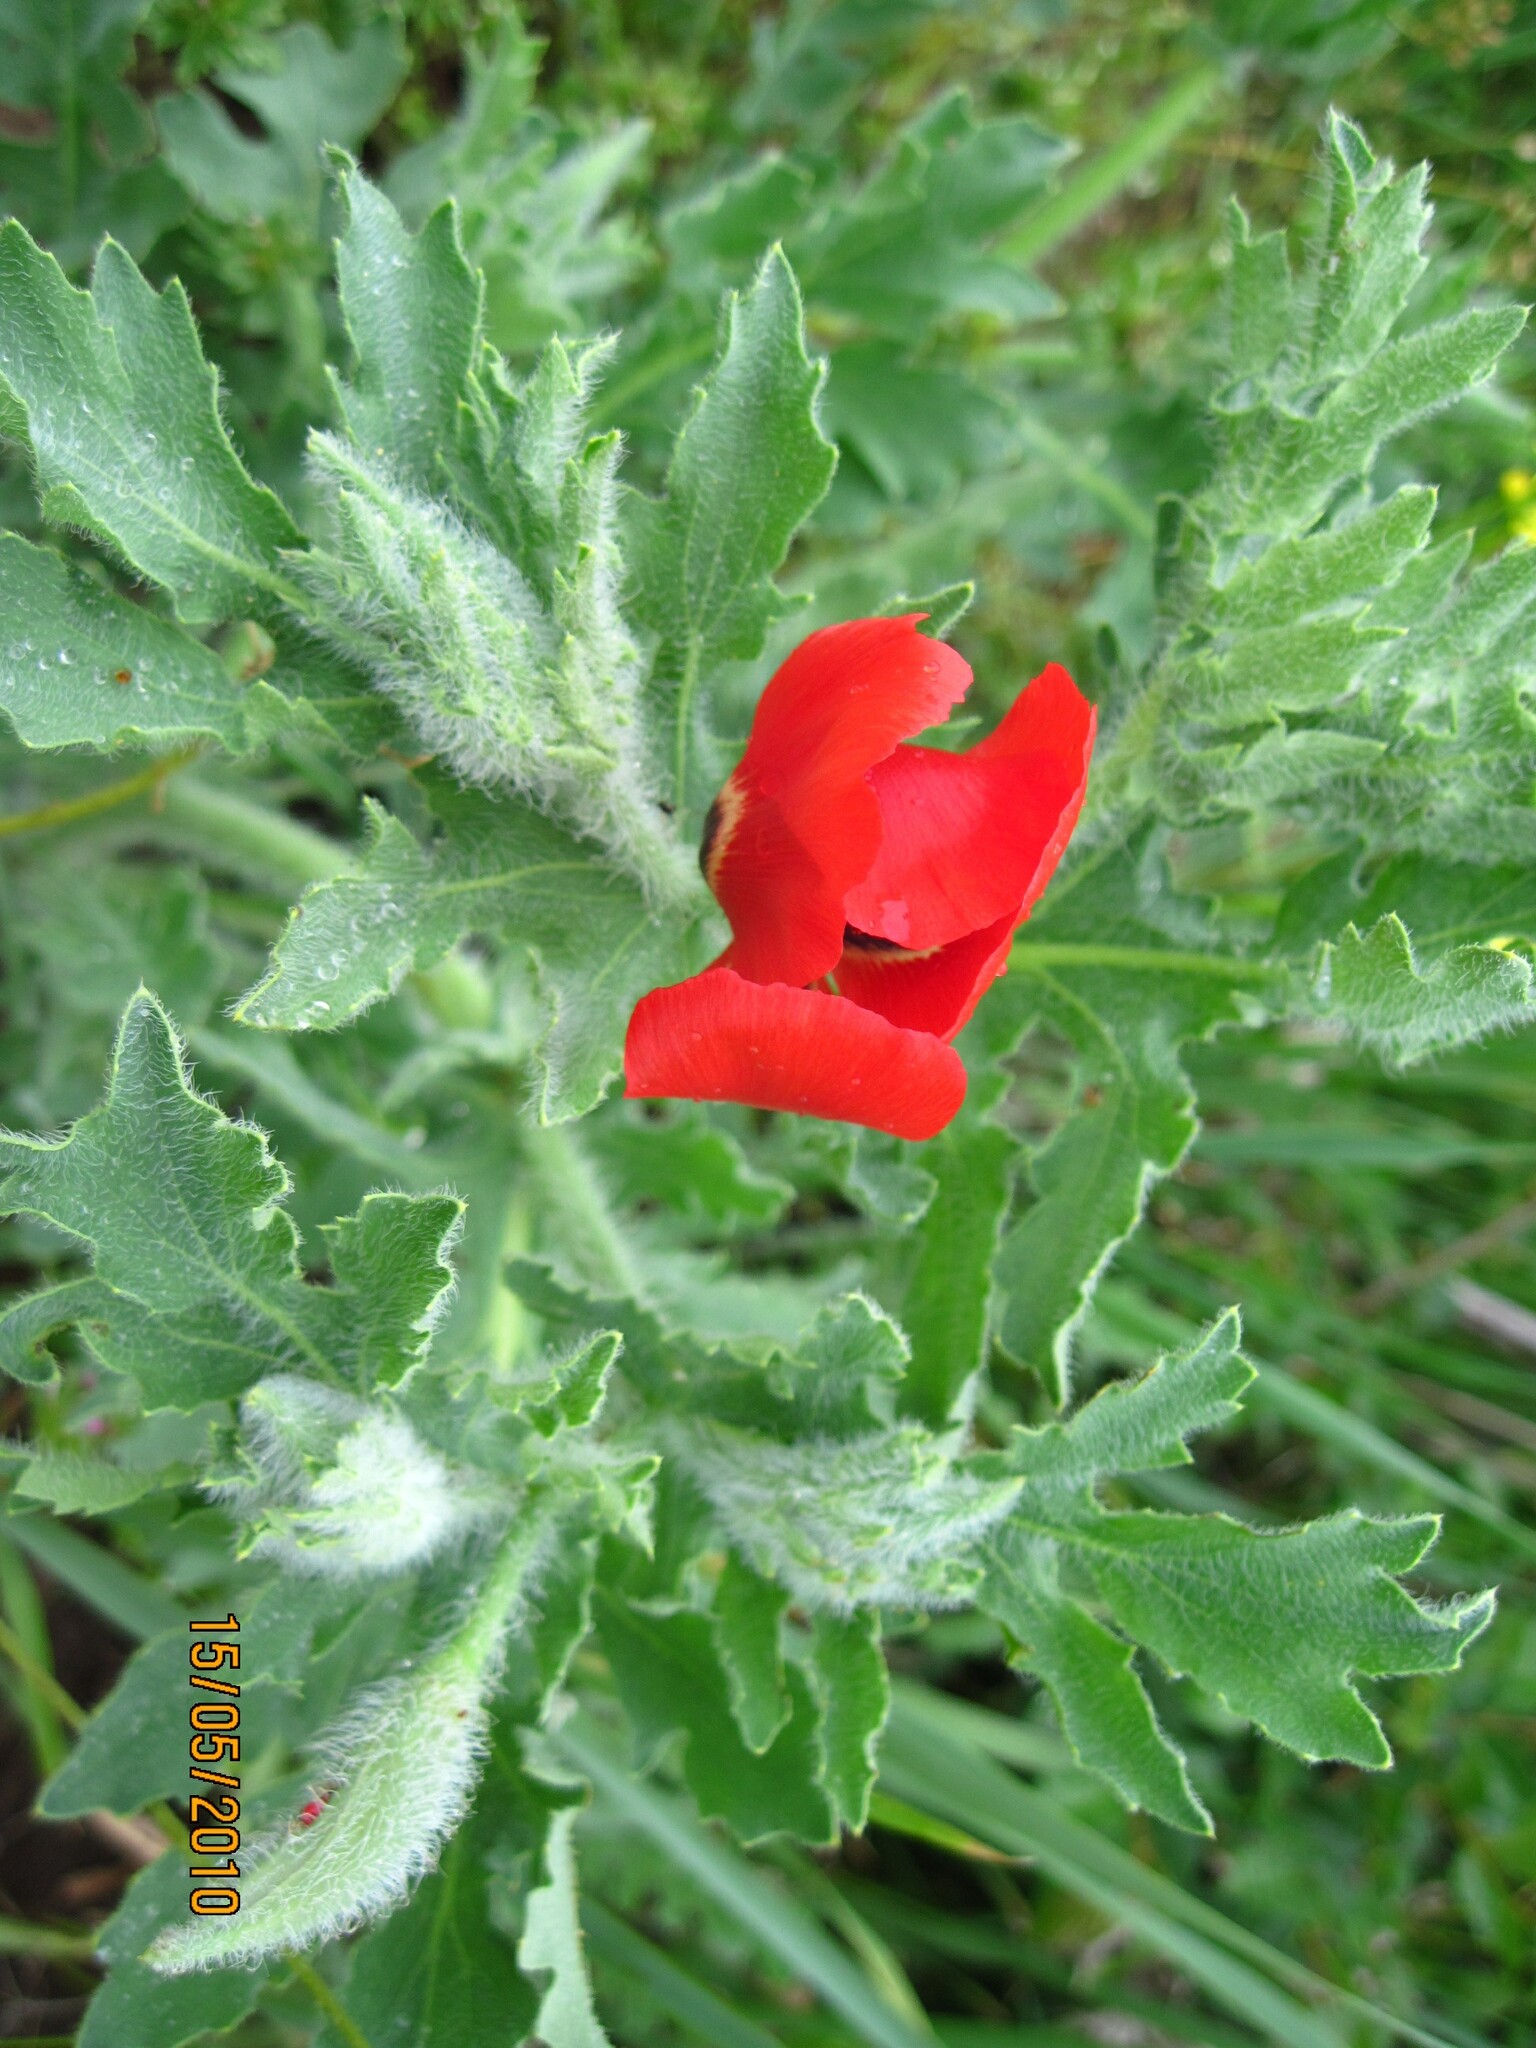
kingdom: Plantae
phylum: Tracheophyta
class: Magnoliopsida
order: Ranunculales
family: Papaveraceae
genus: Glaucium
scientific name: Glaucium corniculatum
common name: Red horned-poppy
